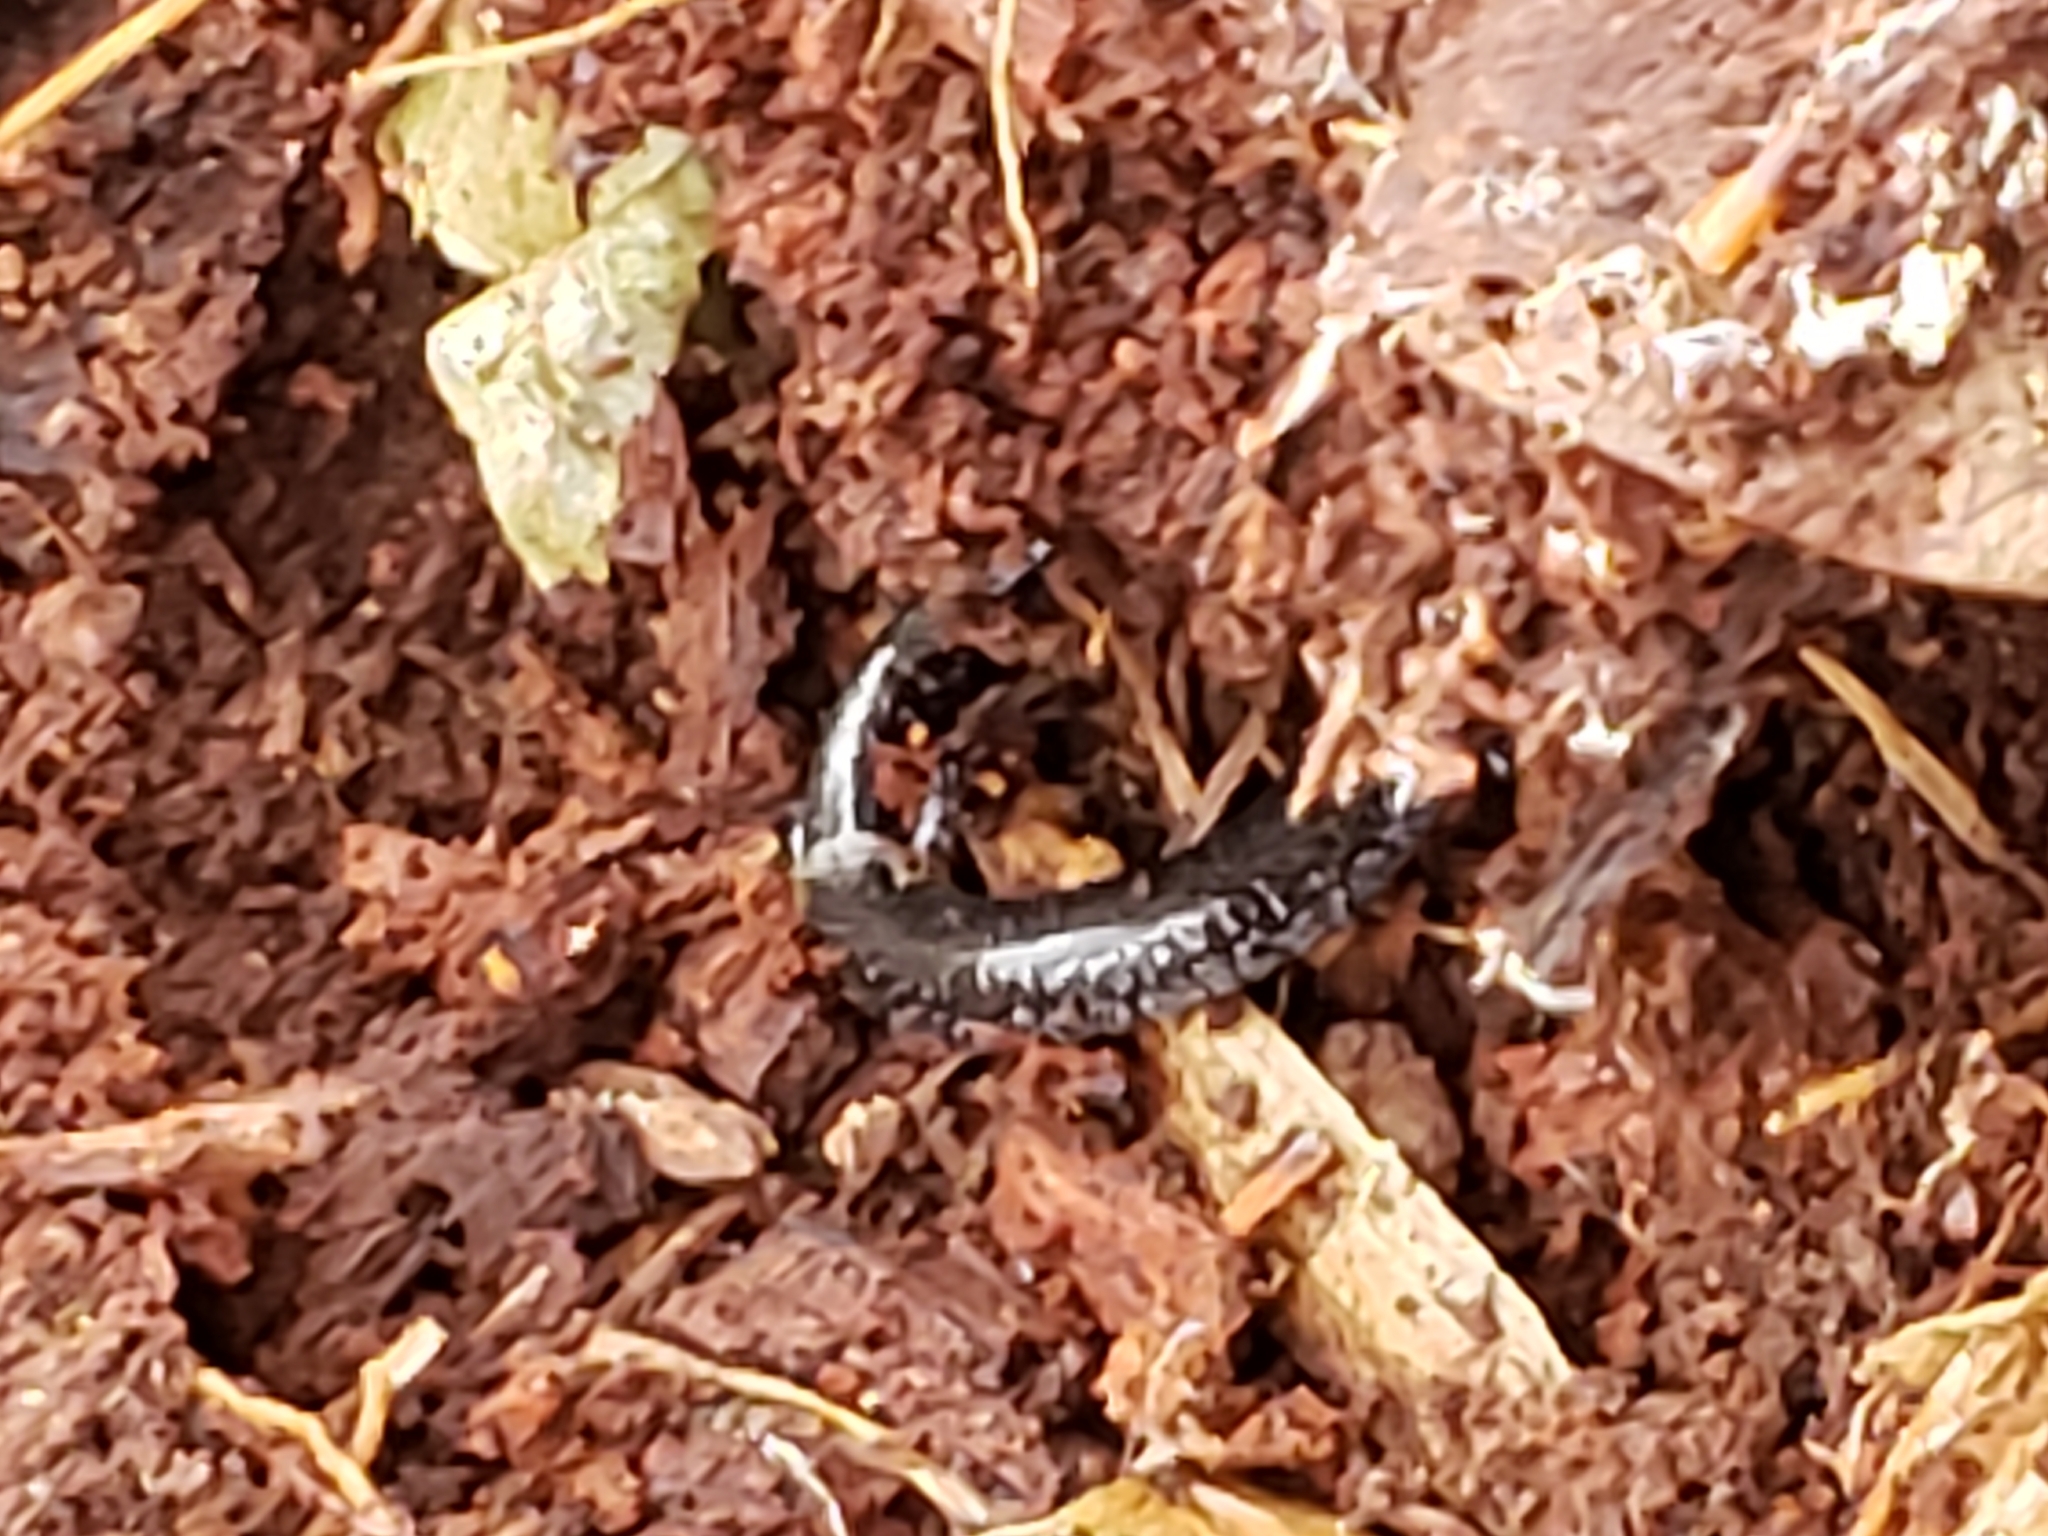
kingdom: Animalia
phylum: Chordata
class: Amphibia
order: Caudata
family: Plethodontidae
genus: Plethodon
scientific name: Plethodon cinereus
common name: Redback salamander
